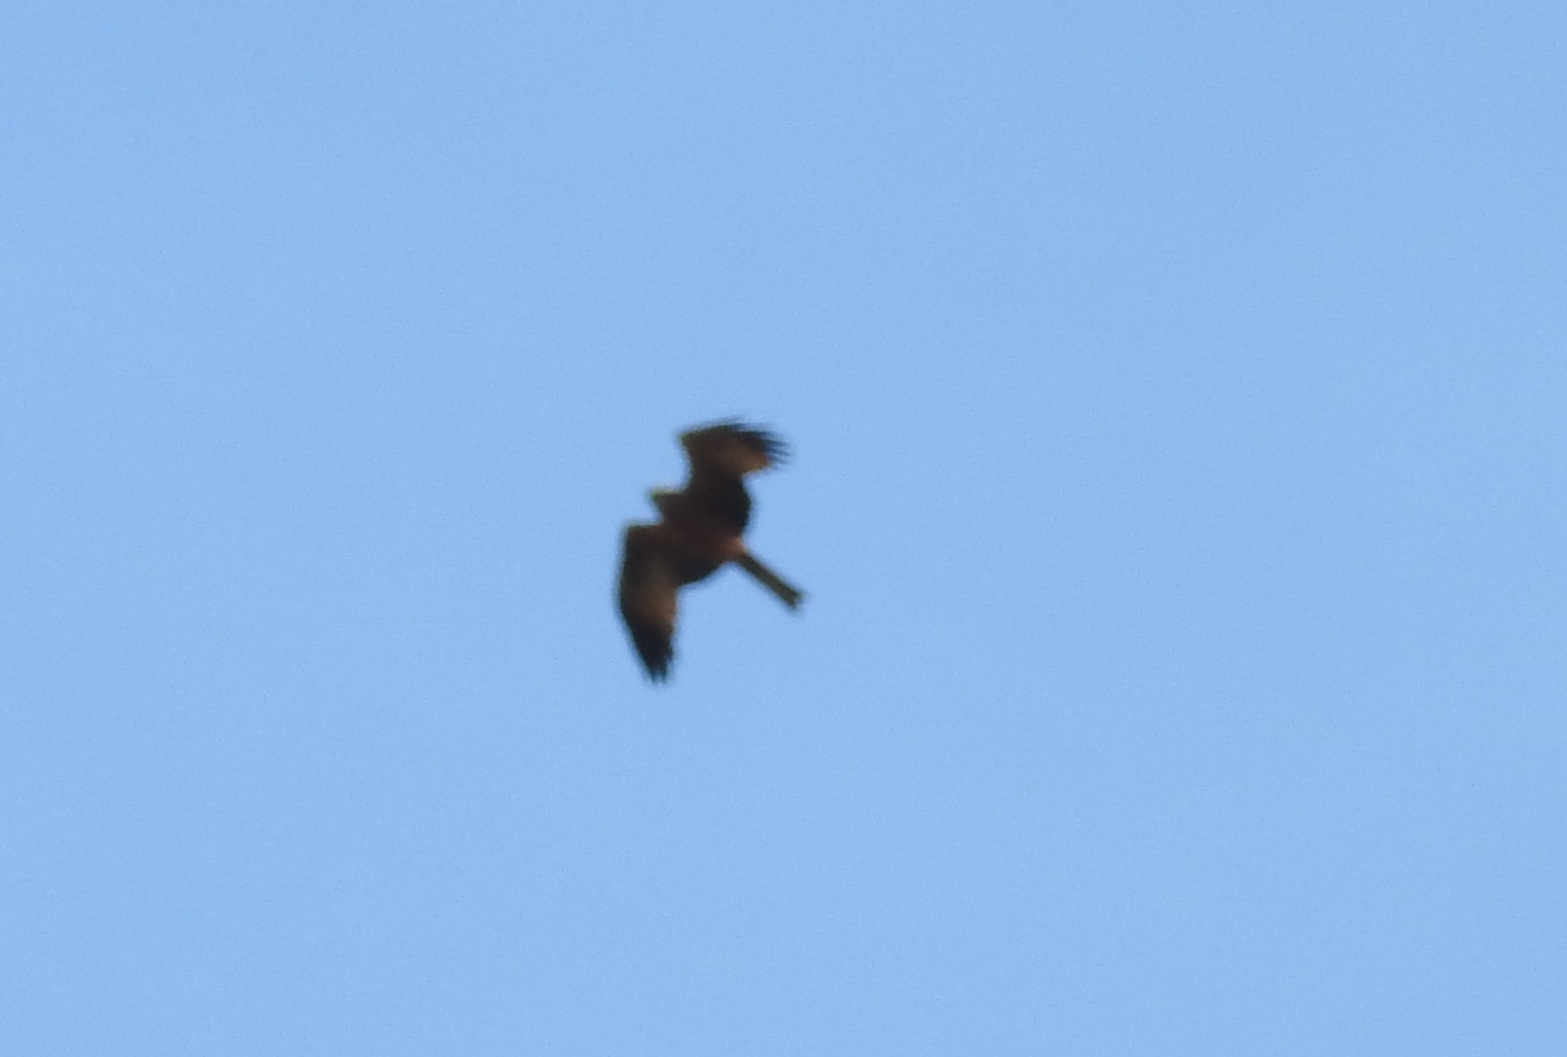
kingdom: Animalia
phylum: Chordata
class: Aves
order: Accipitriformes
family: Accipitridae
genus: Milvus
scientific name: Milvus migrans
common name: Black kite
